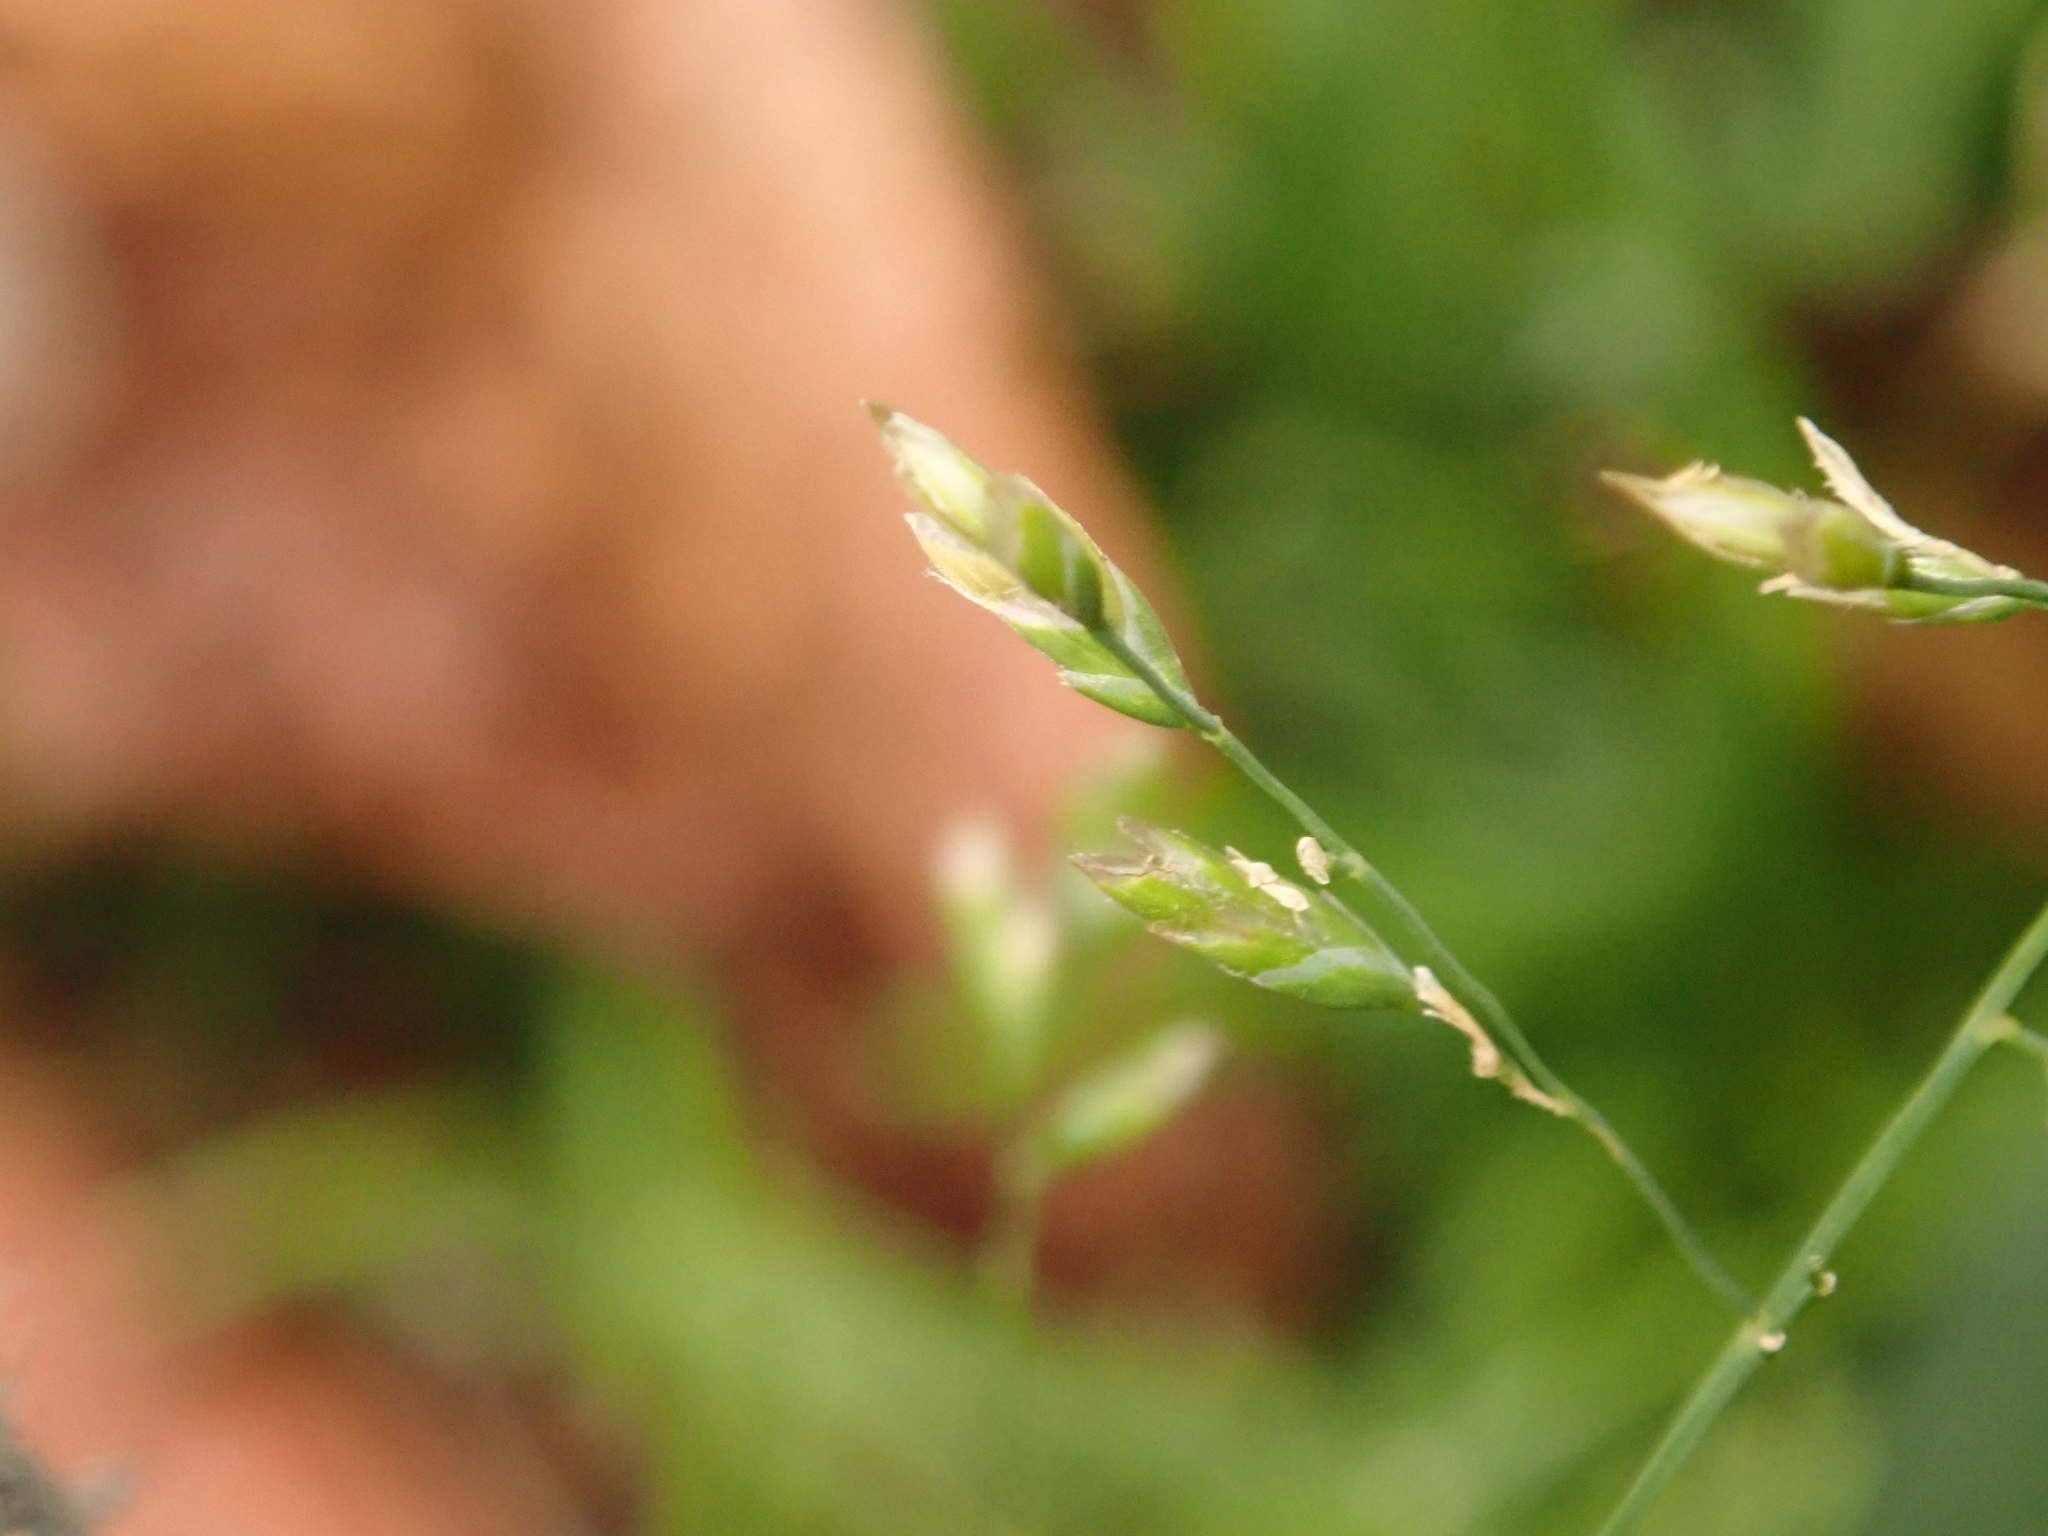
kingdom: Plantae
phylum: Tracheophyta
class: Liliopsida
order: Poales
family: Poaceae
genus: Poa
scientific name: Poa annua
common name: Annual bluegrass
